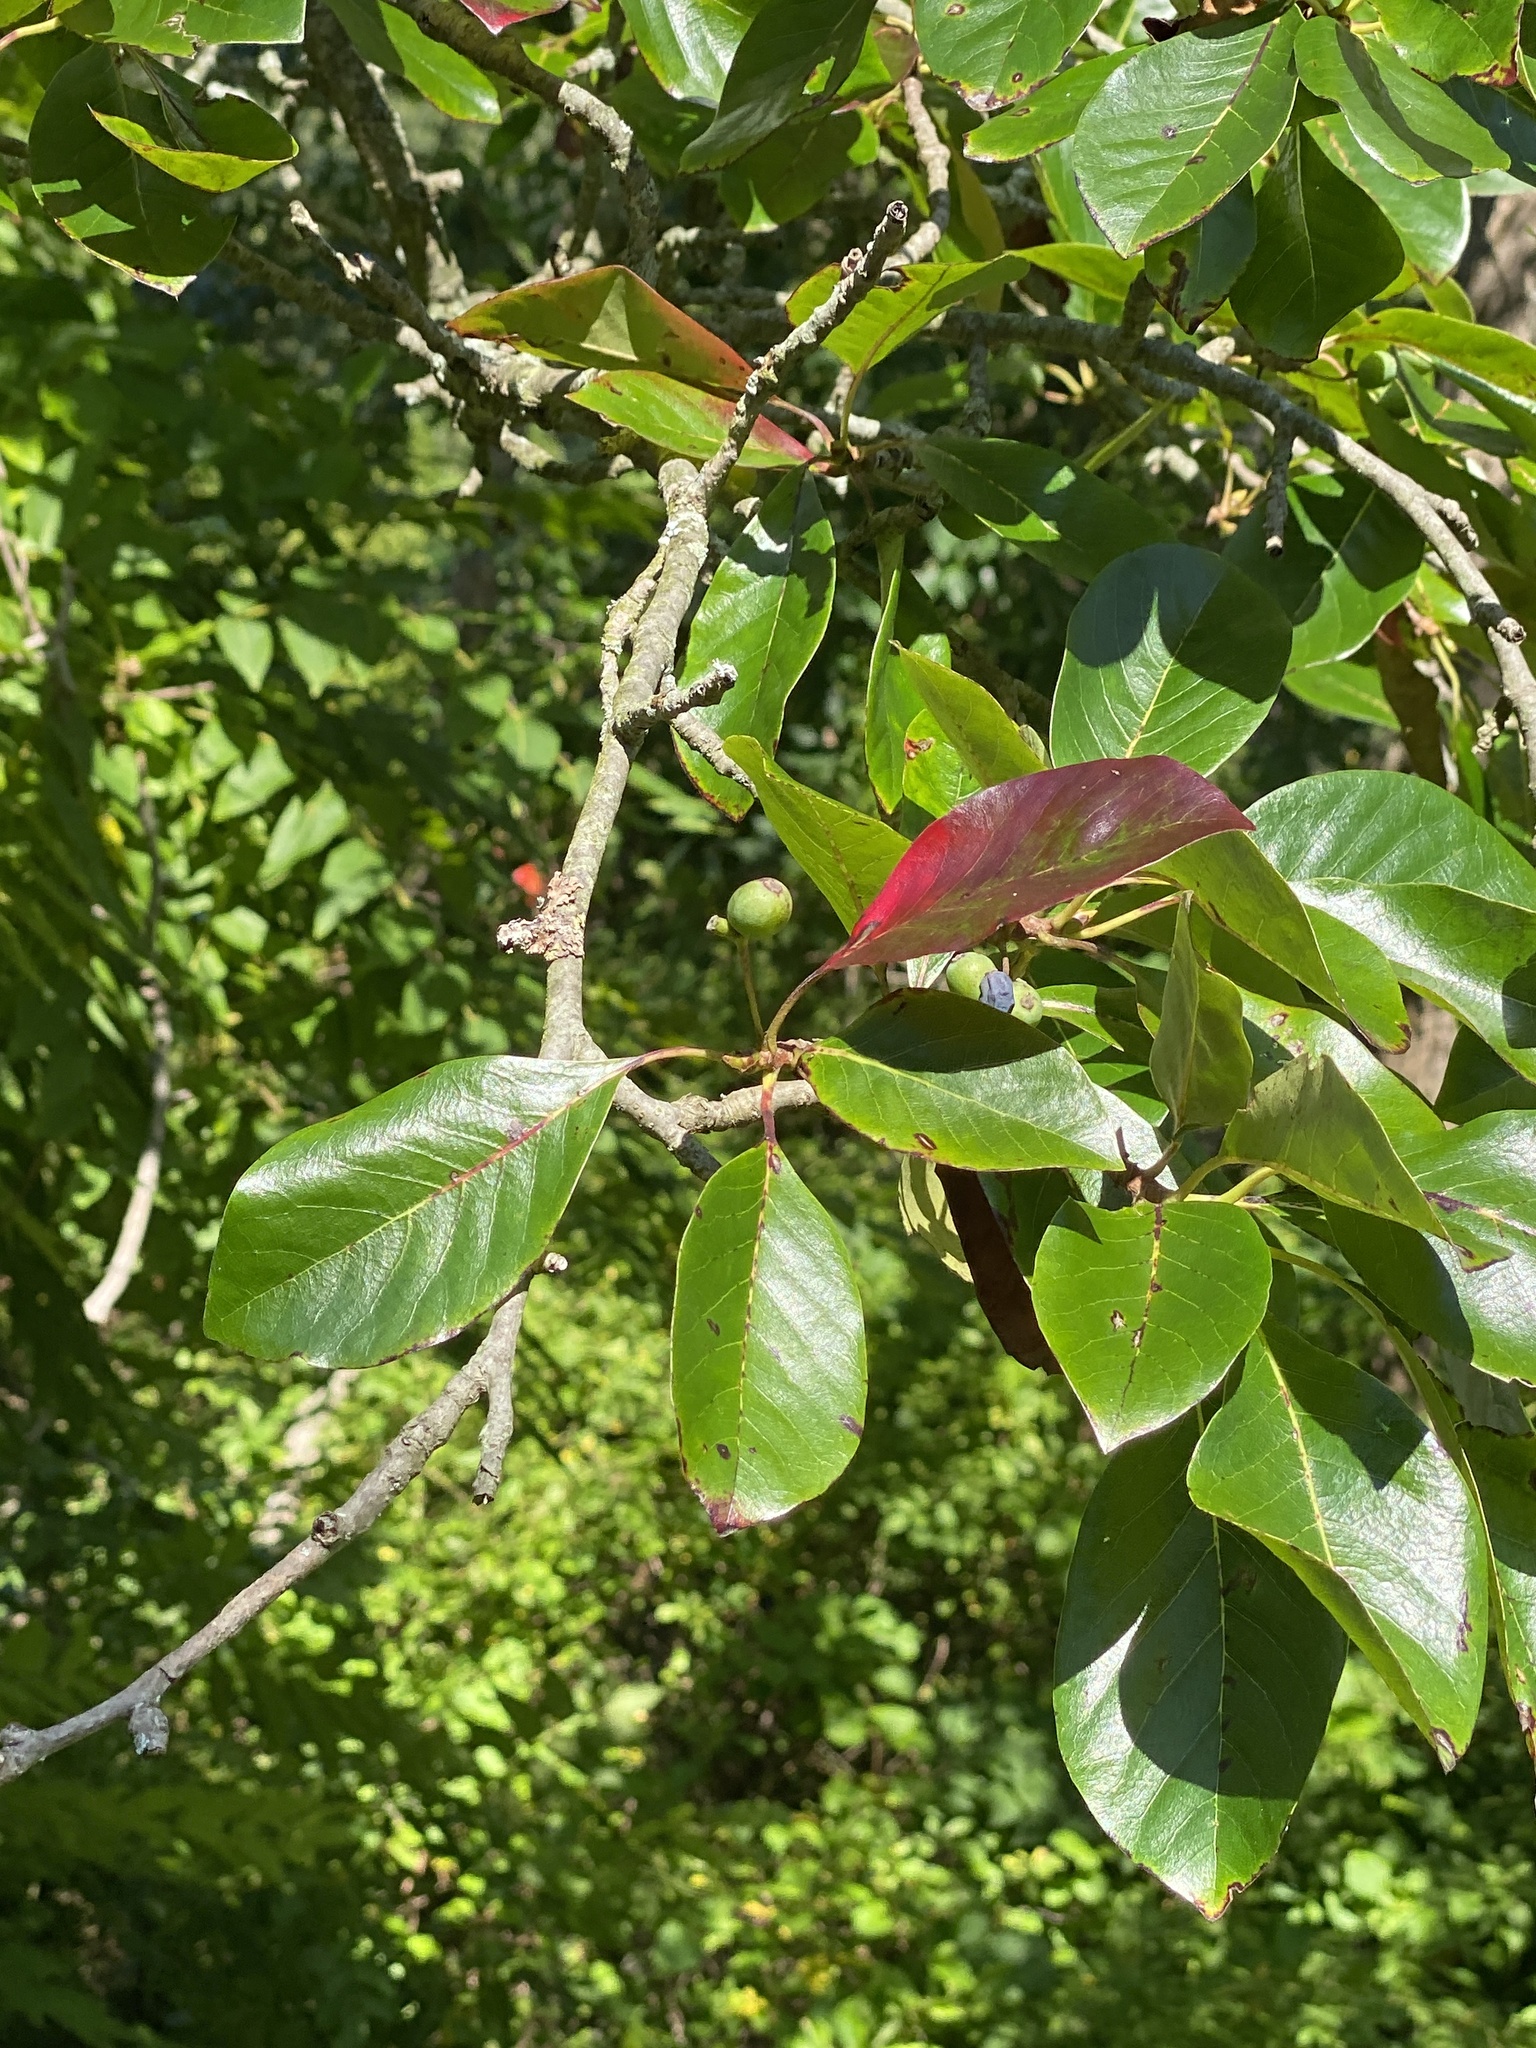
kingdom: Plantae
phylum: Tracheophyta
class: Magnoliopsida
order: Cornales
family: Nyssaceae
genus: Nyssa
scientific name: Nyssa sylvatica
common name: Black tupelo
